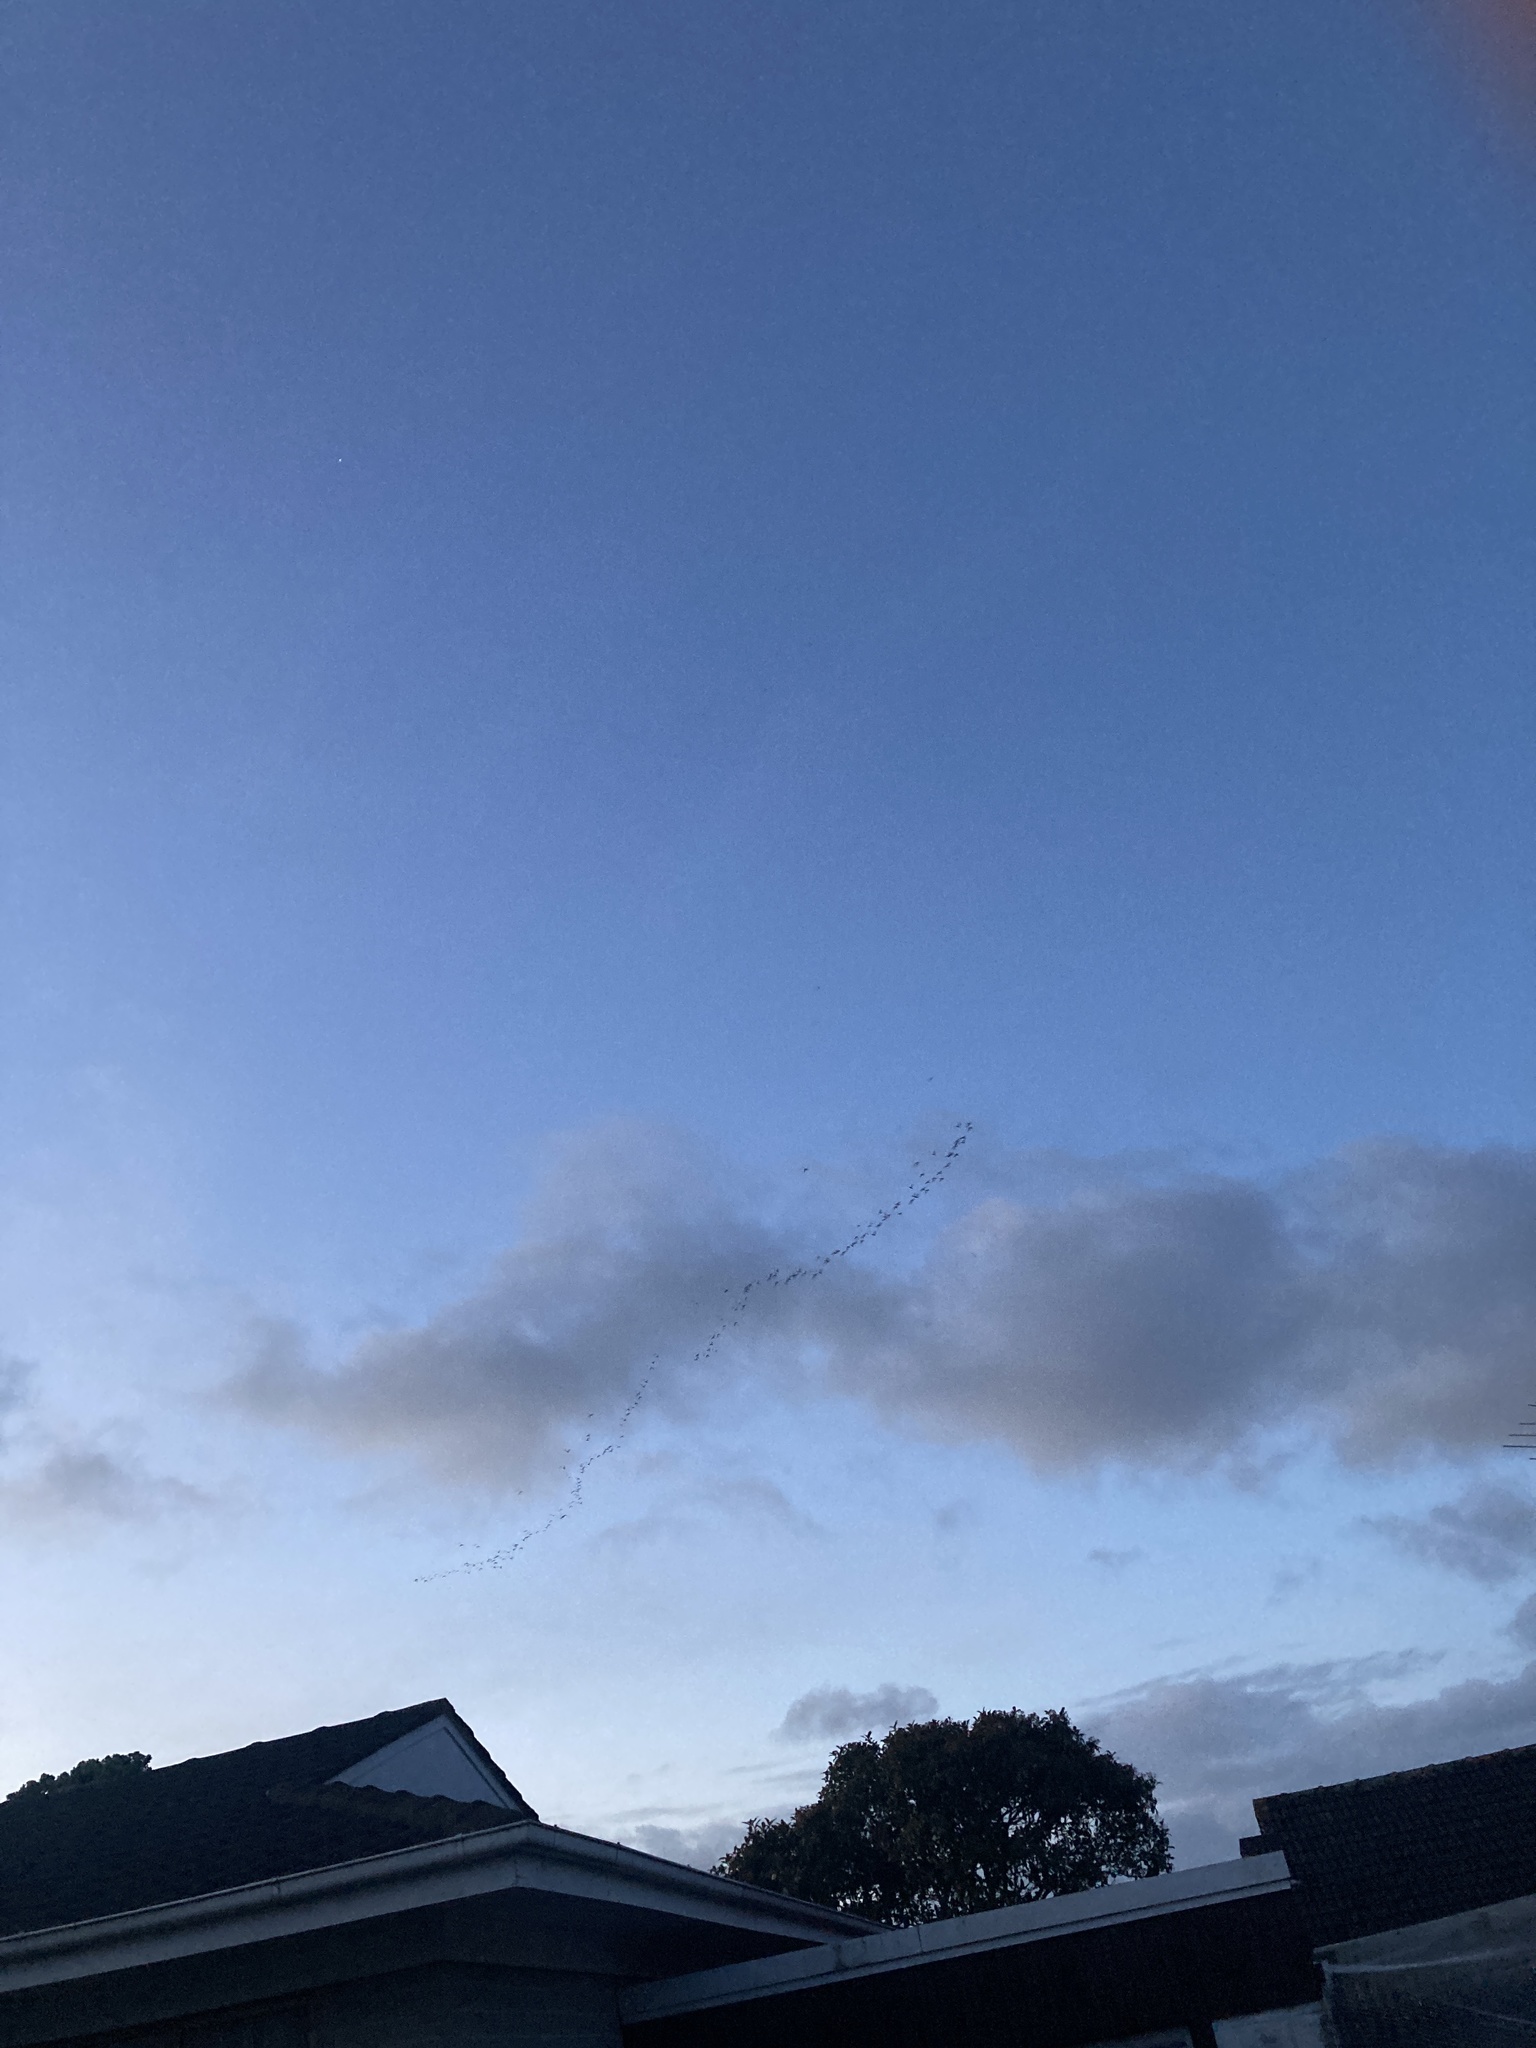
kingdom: Animalia
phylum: Chordata
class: Aves
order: Charadriiformes
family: Scolopacidae
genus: Limosa
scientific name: Limosa lapponica
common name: Bar-tailed godwit
